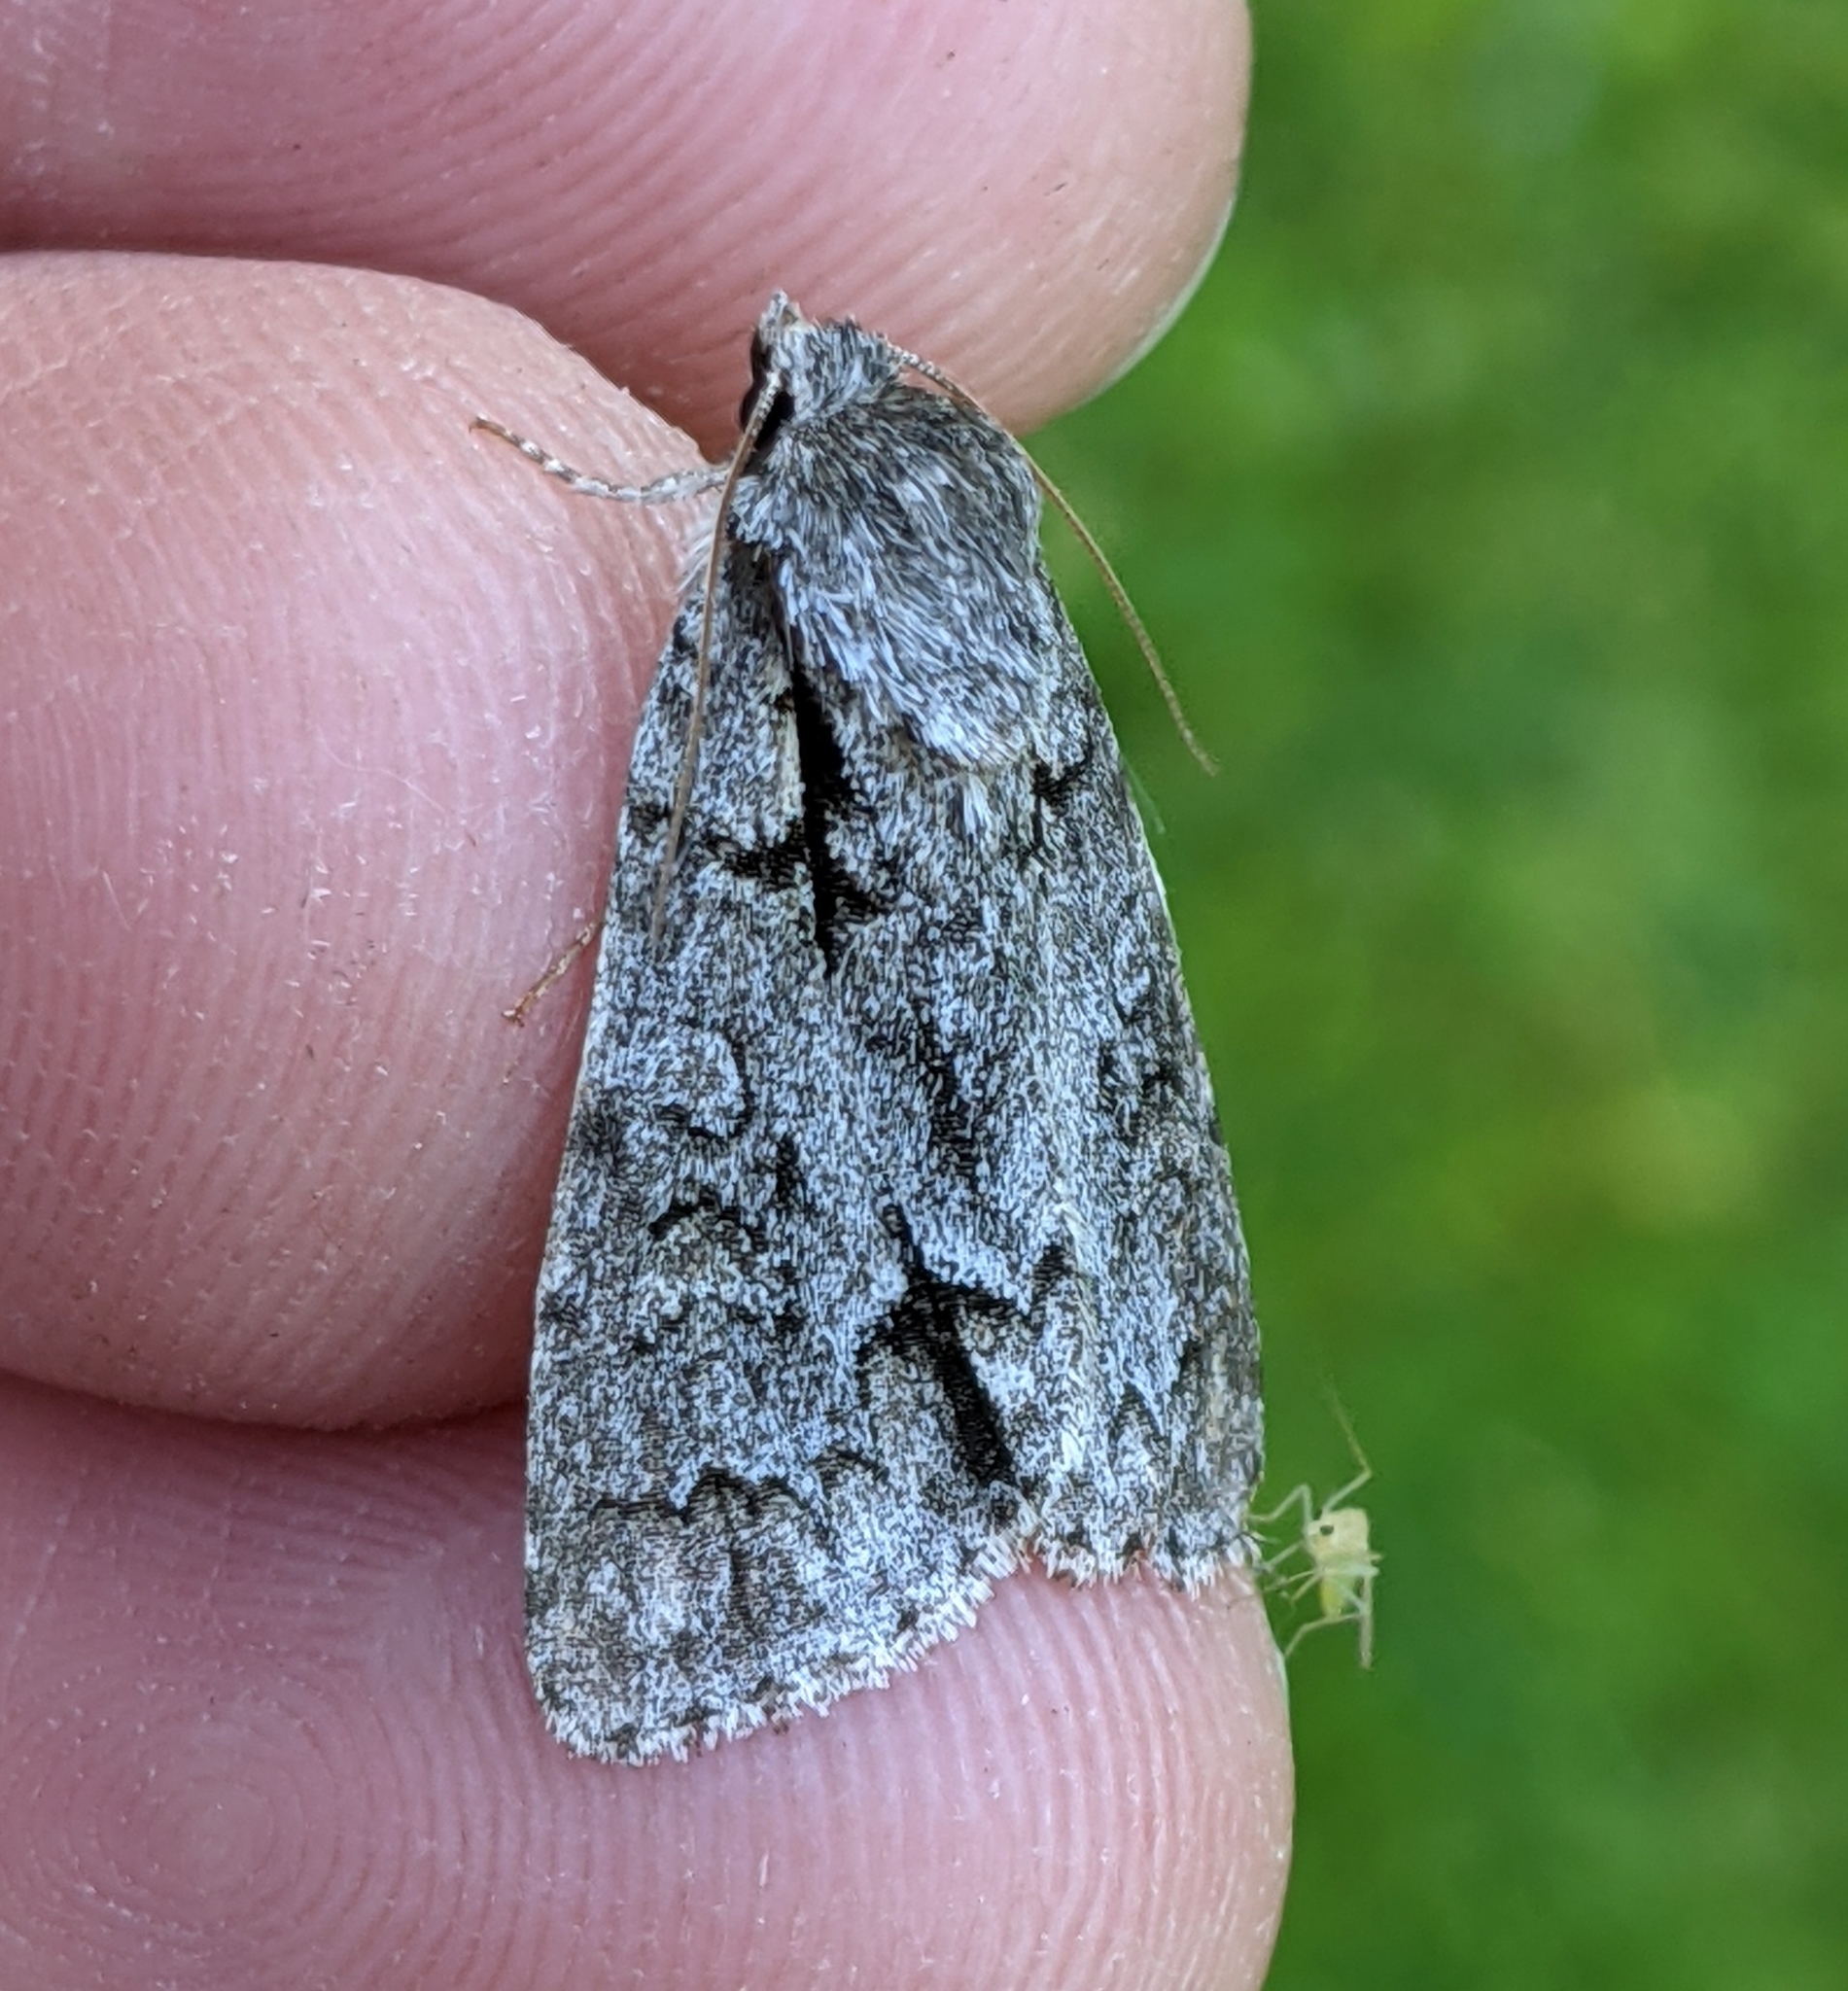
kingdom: Animalia
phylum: Arthropoda
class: Insecta
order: Lepidoptera
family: Noctuidae
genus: Acronicta
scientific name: Acronicta grisea
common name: Gray dagger
